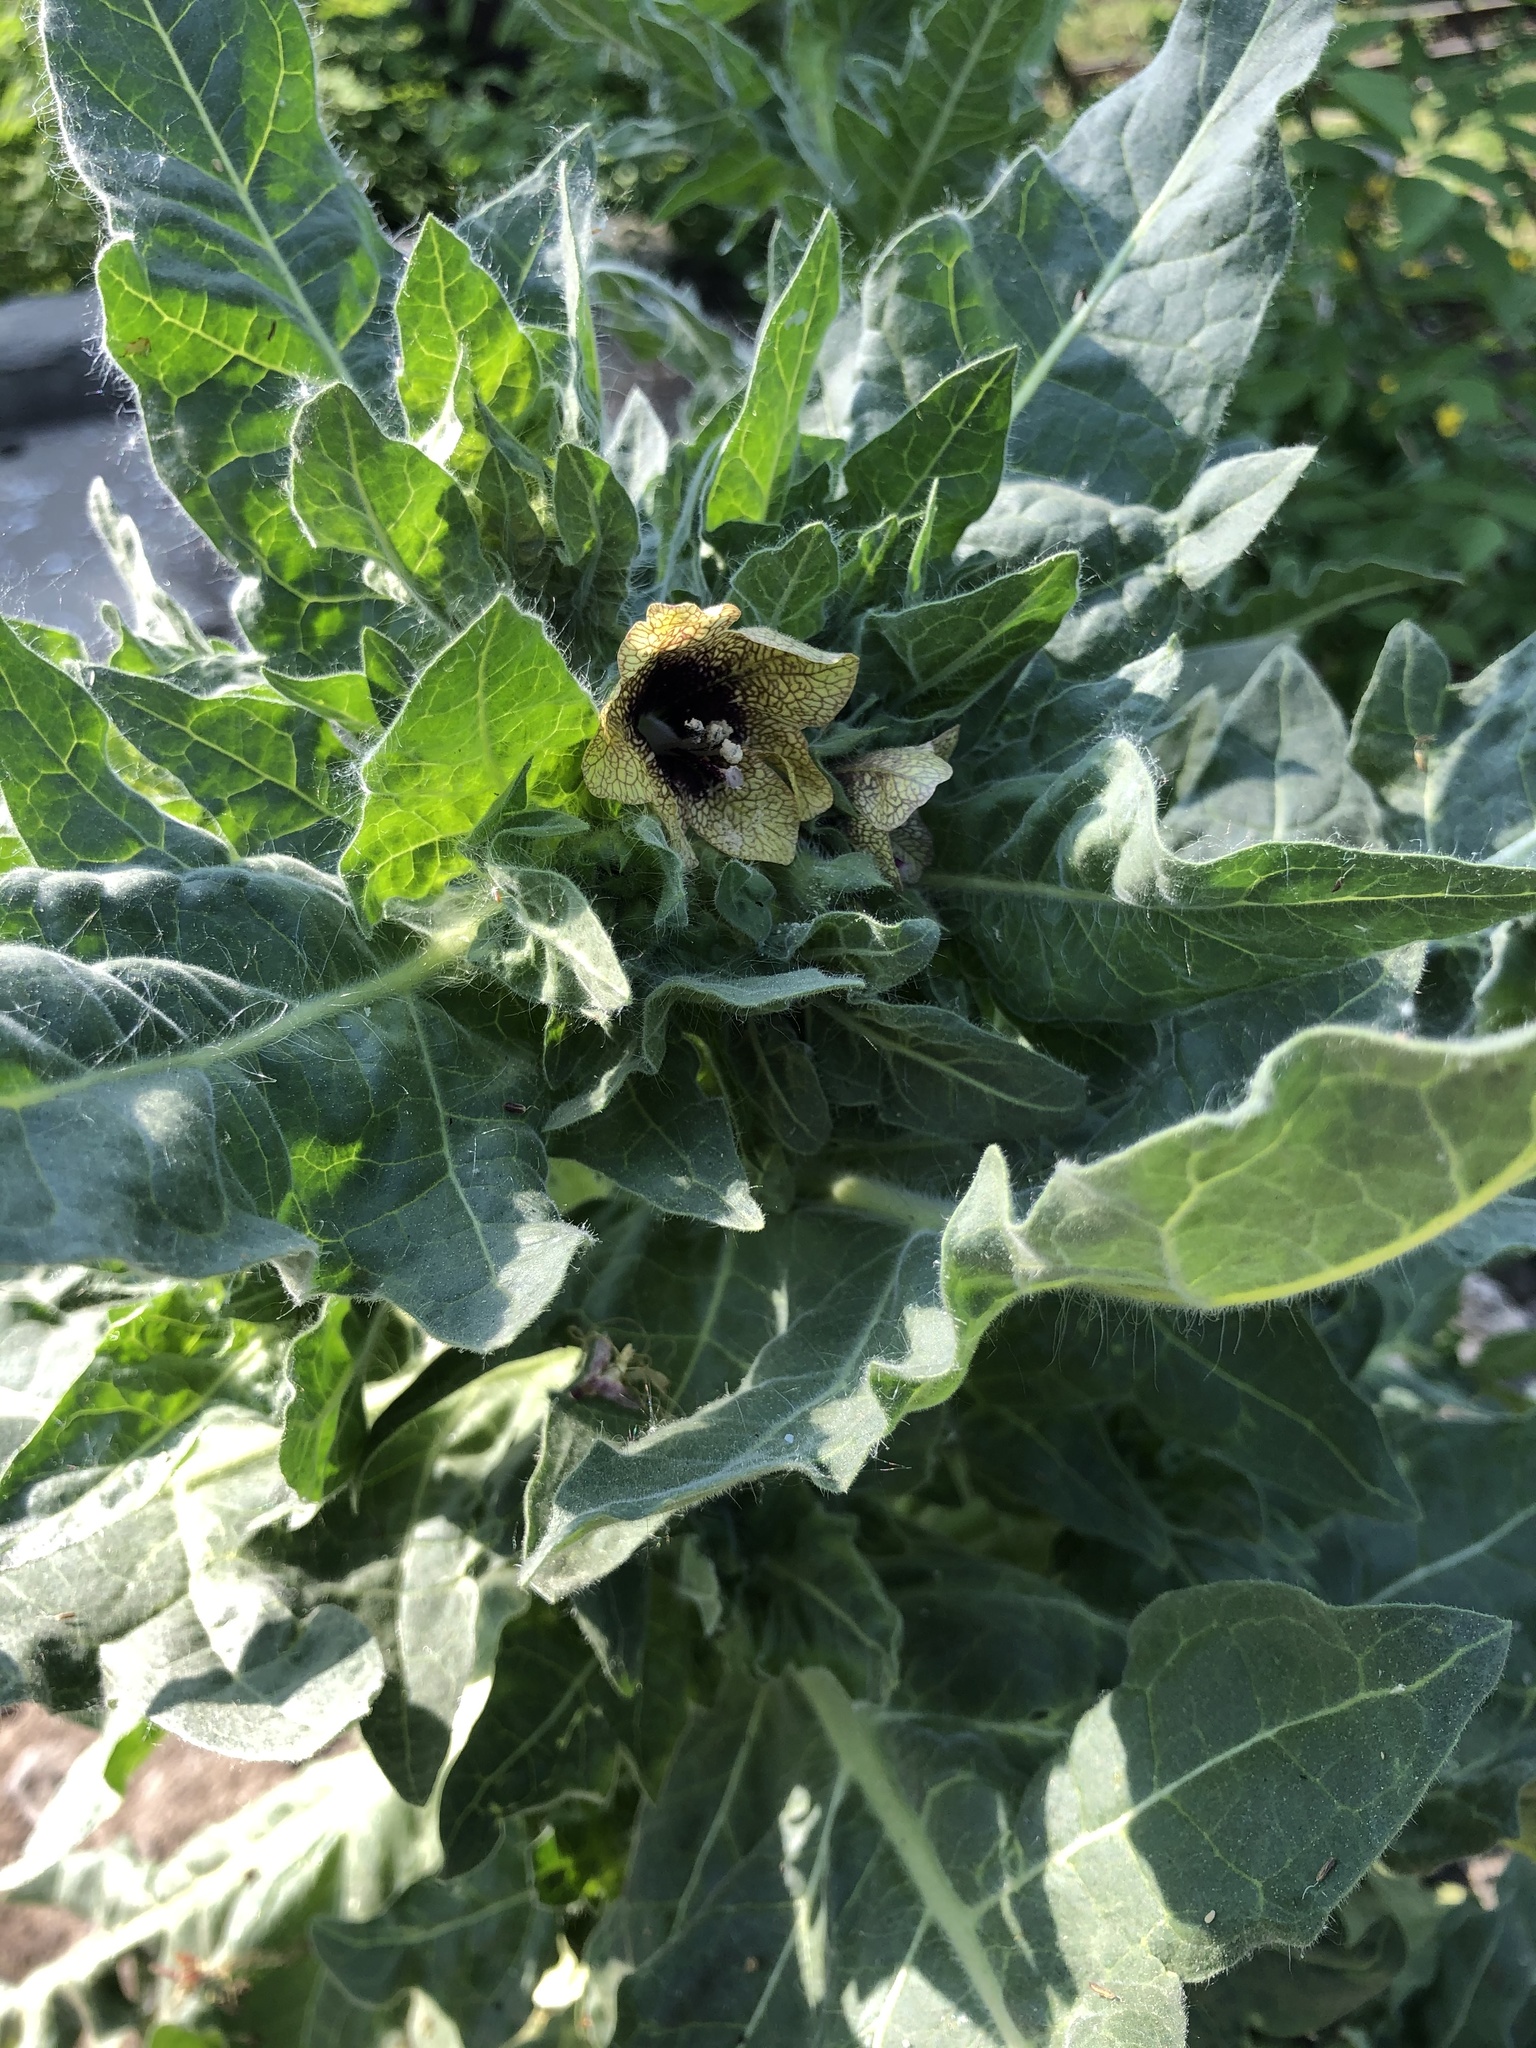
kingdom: Plantae
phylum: Tracheophyta
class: Magnoliopsida
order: Solanales
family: Solanaceae
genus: Hyoscyamus
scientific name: Hyoscyamus niger
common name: Henbane
